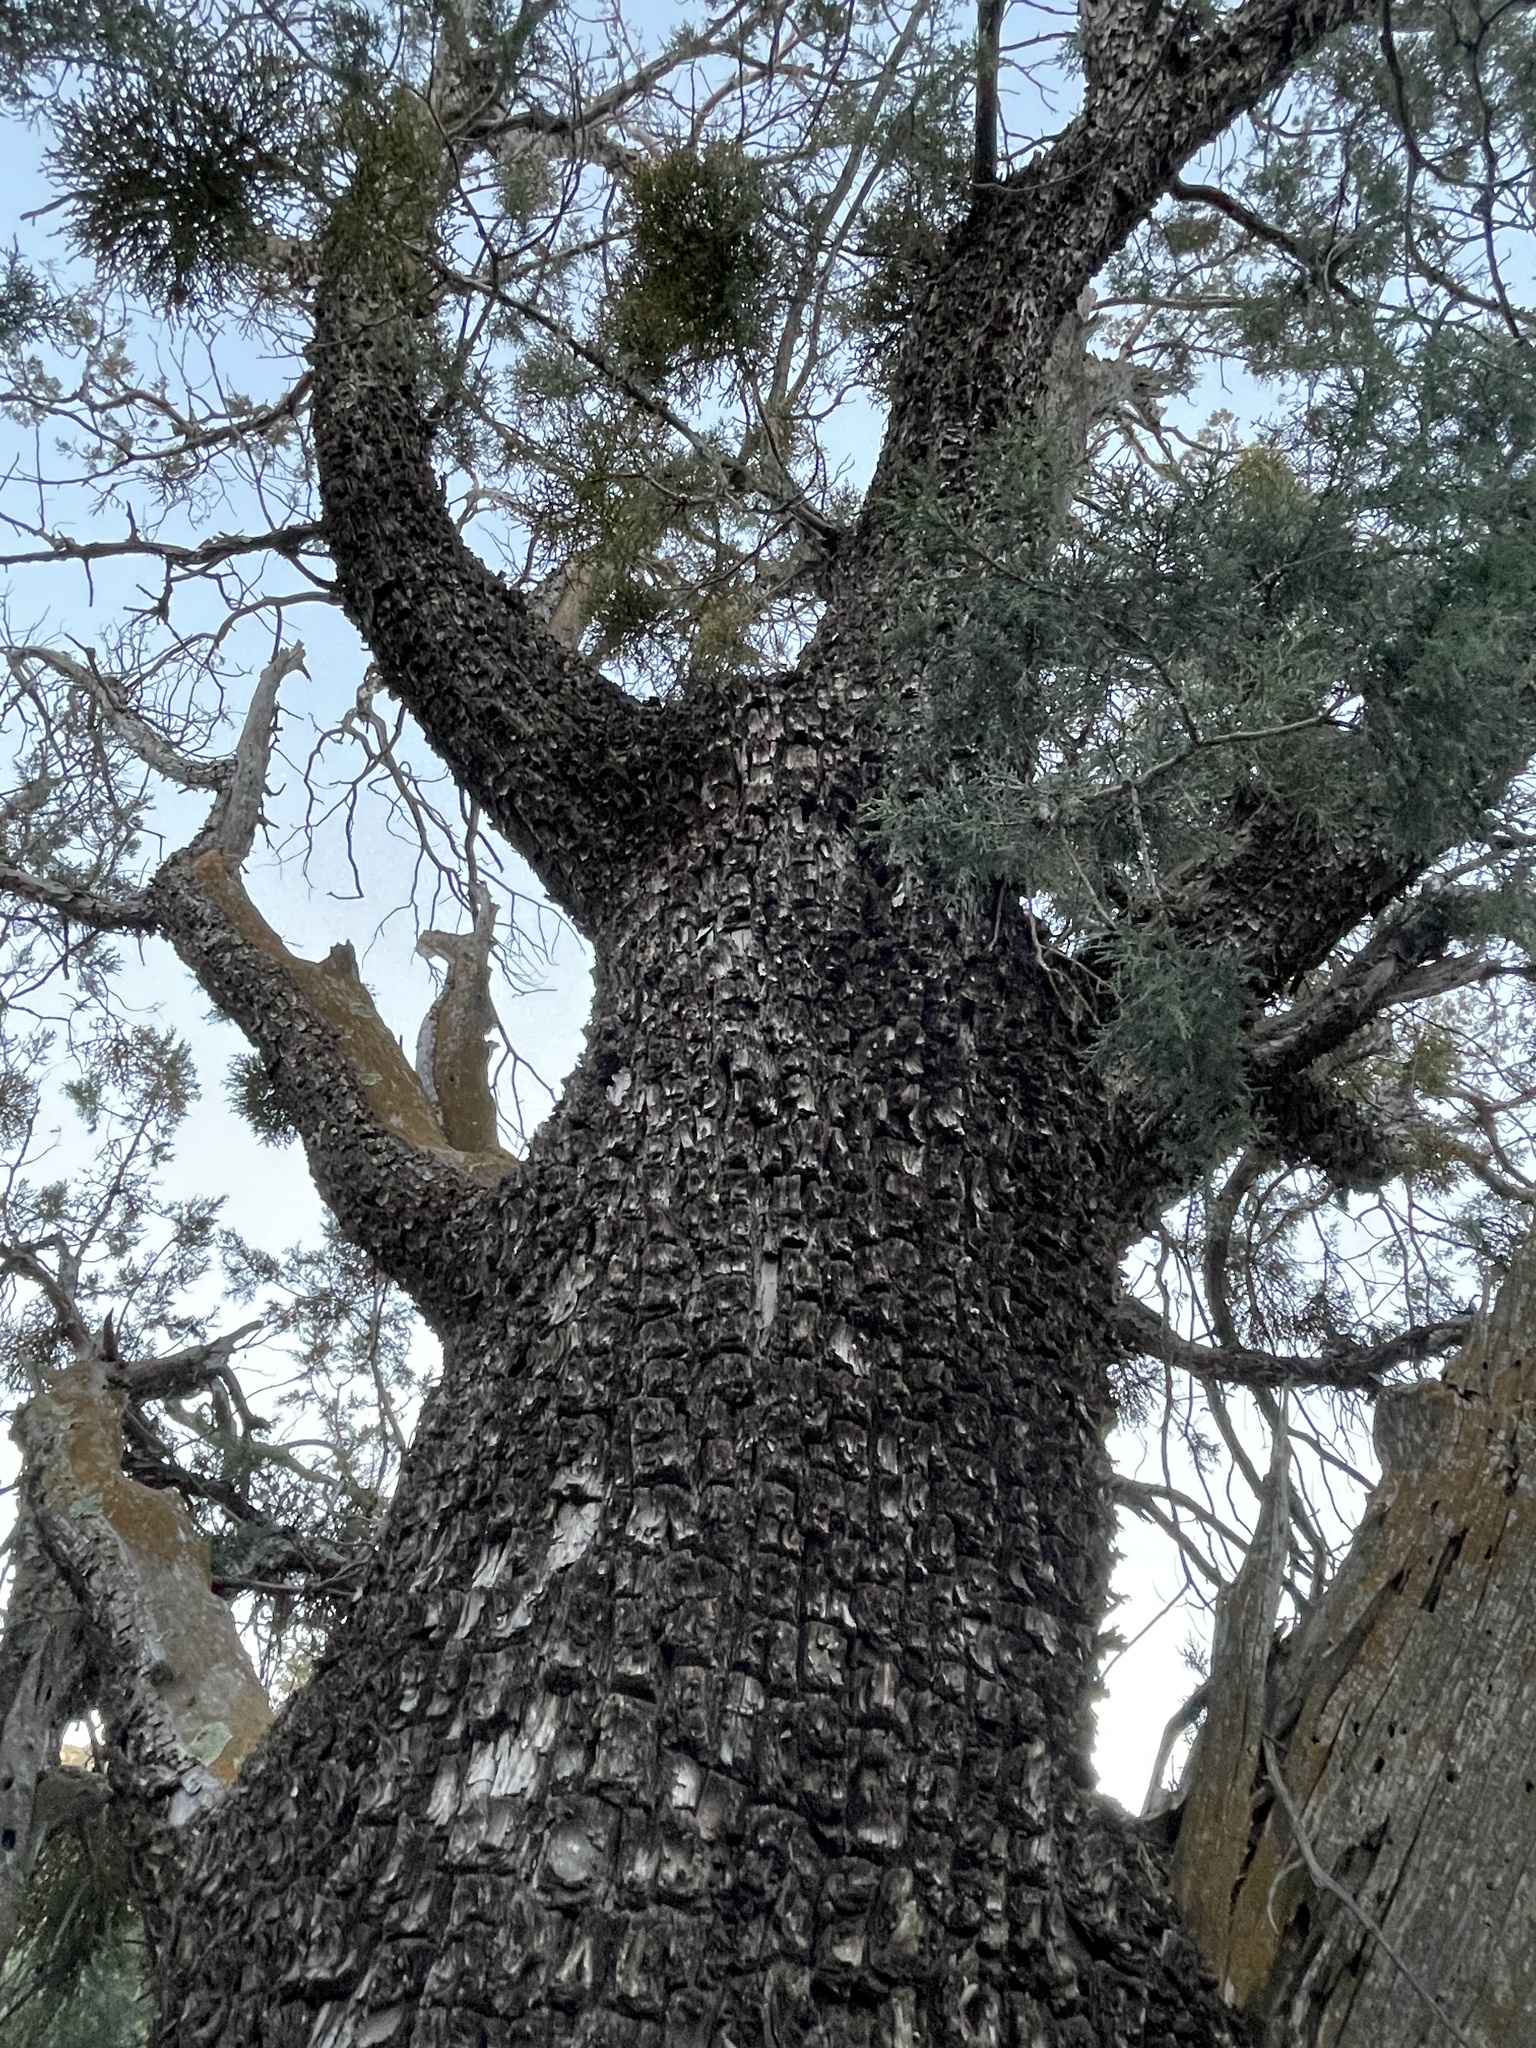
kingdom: Plantae
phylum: Tracheophyta
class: Pinopsida
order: Pinales
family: Cupressaceae
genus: Juniperus
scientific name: Juniperus deppeana
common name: Alligator juniper
